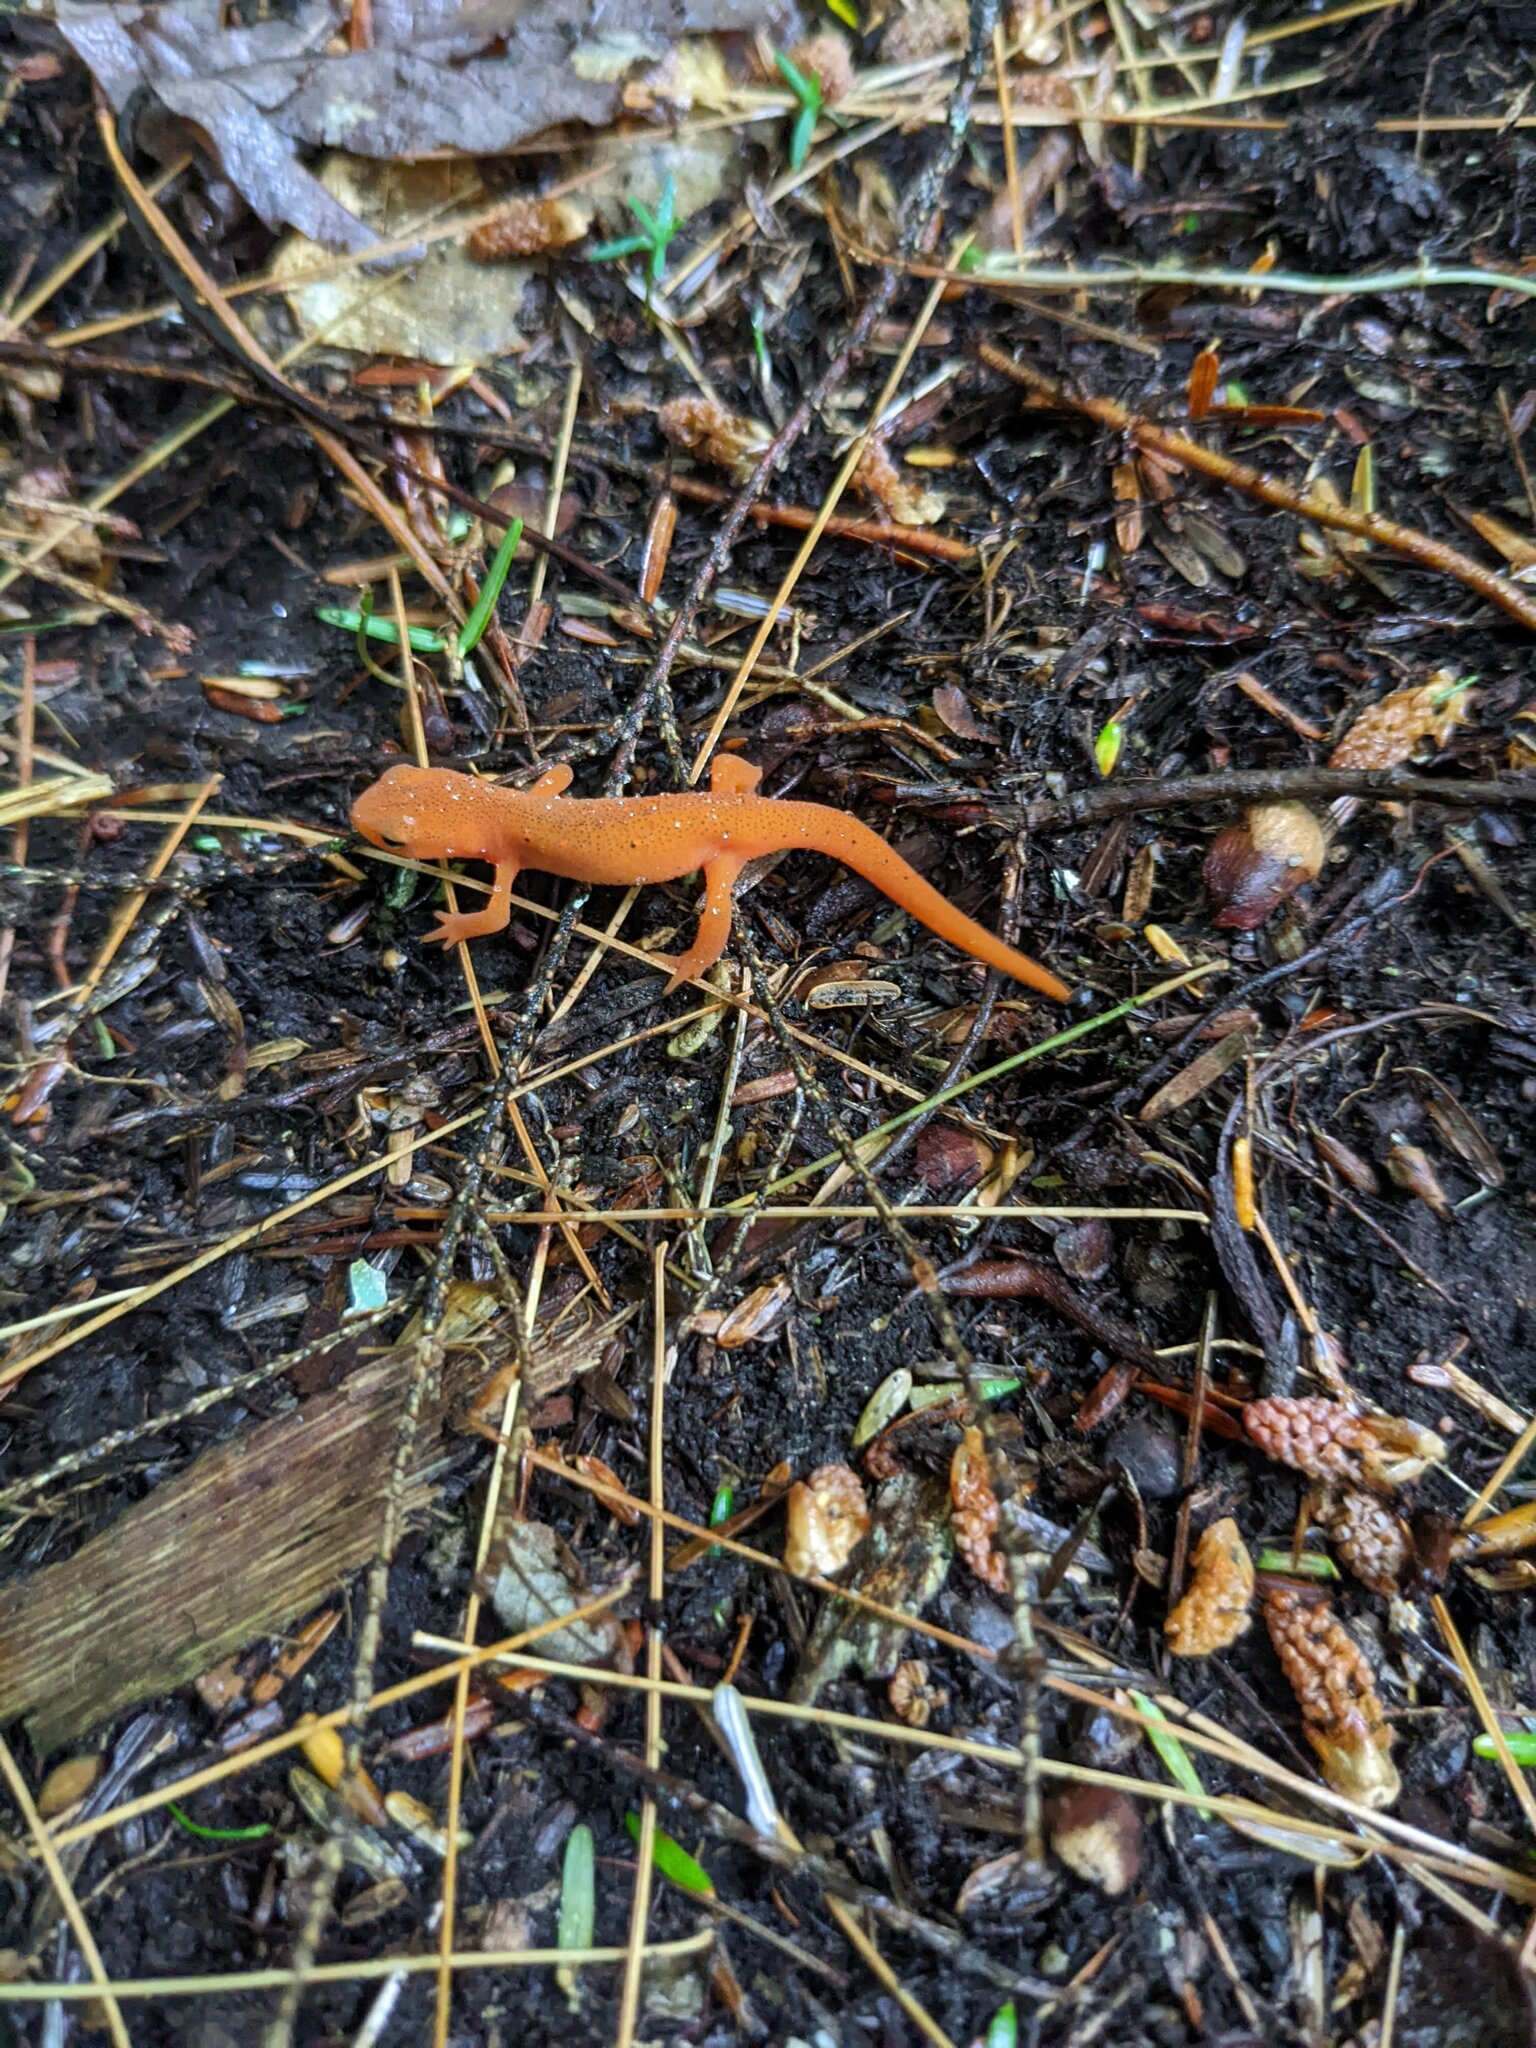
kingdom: Animalia
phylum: Chordata
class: Amphibia
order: Caudata
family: Salamandridae
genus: Notophthalmus
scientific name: Notophthalmus viridescens
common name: Eastern newt
